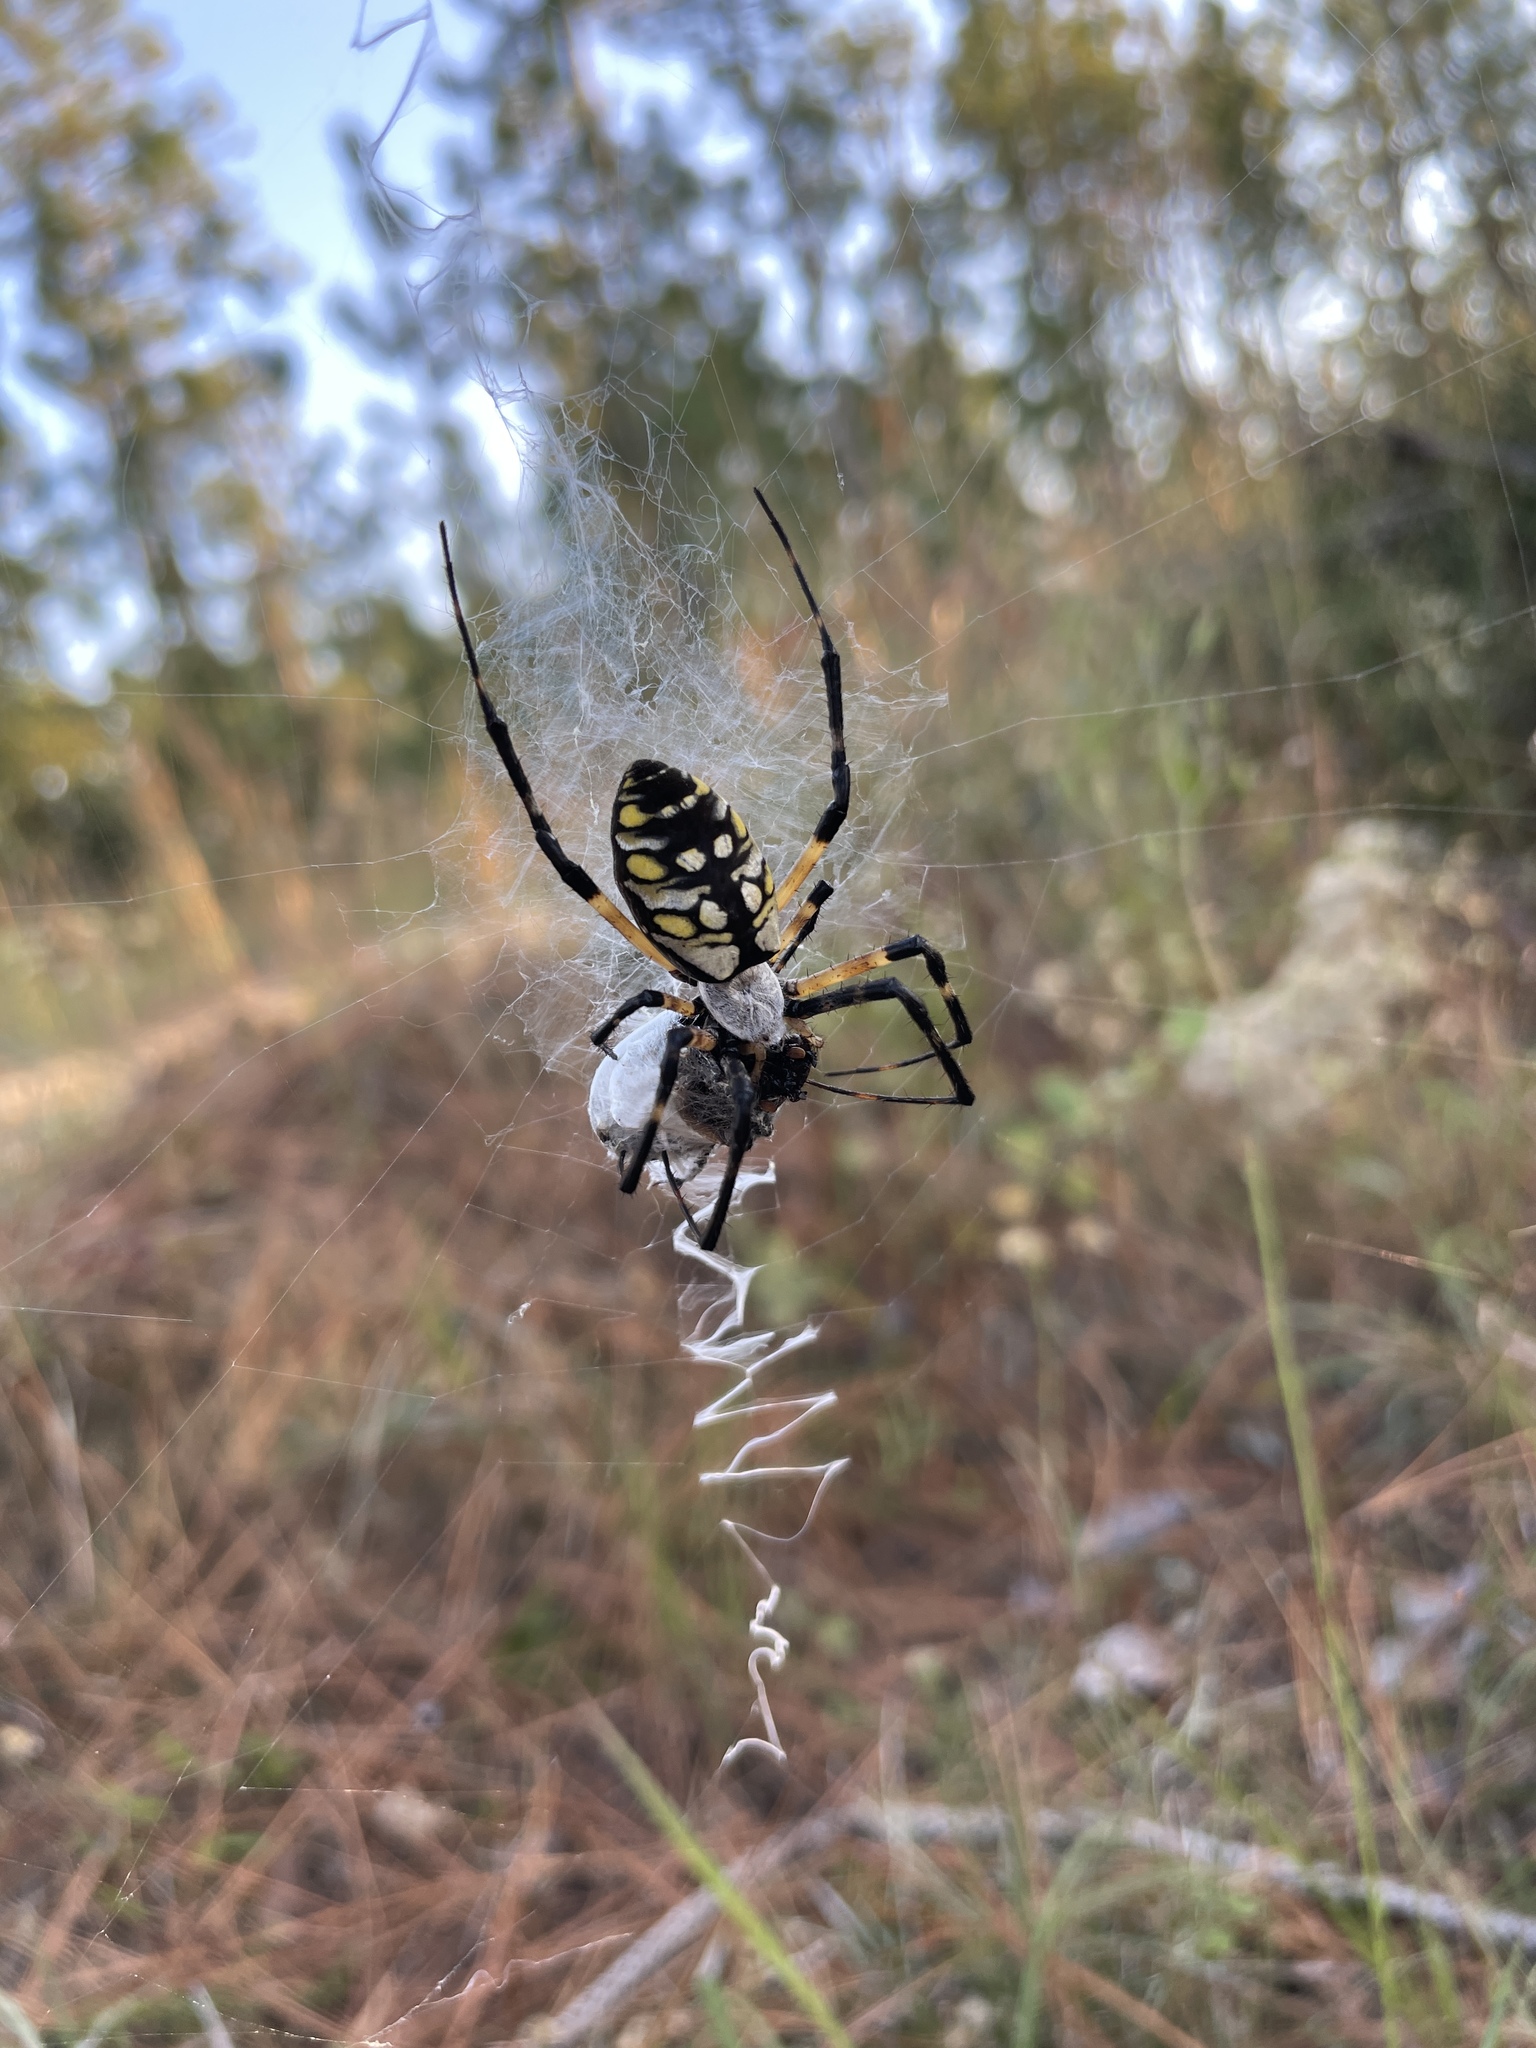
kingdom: Animalia
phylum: Arthropoda
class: Arachnida
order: Araneae
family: Araneidae
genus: Argiope
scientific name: Argiope aurantia
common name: Orb weavers
